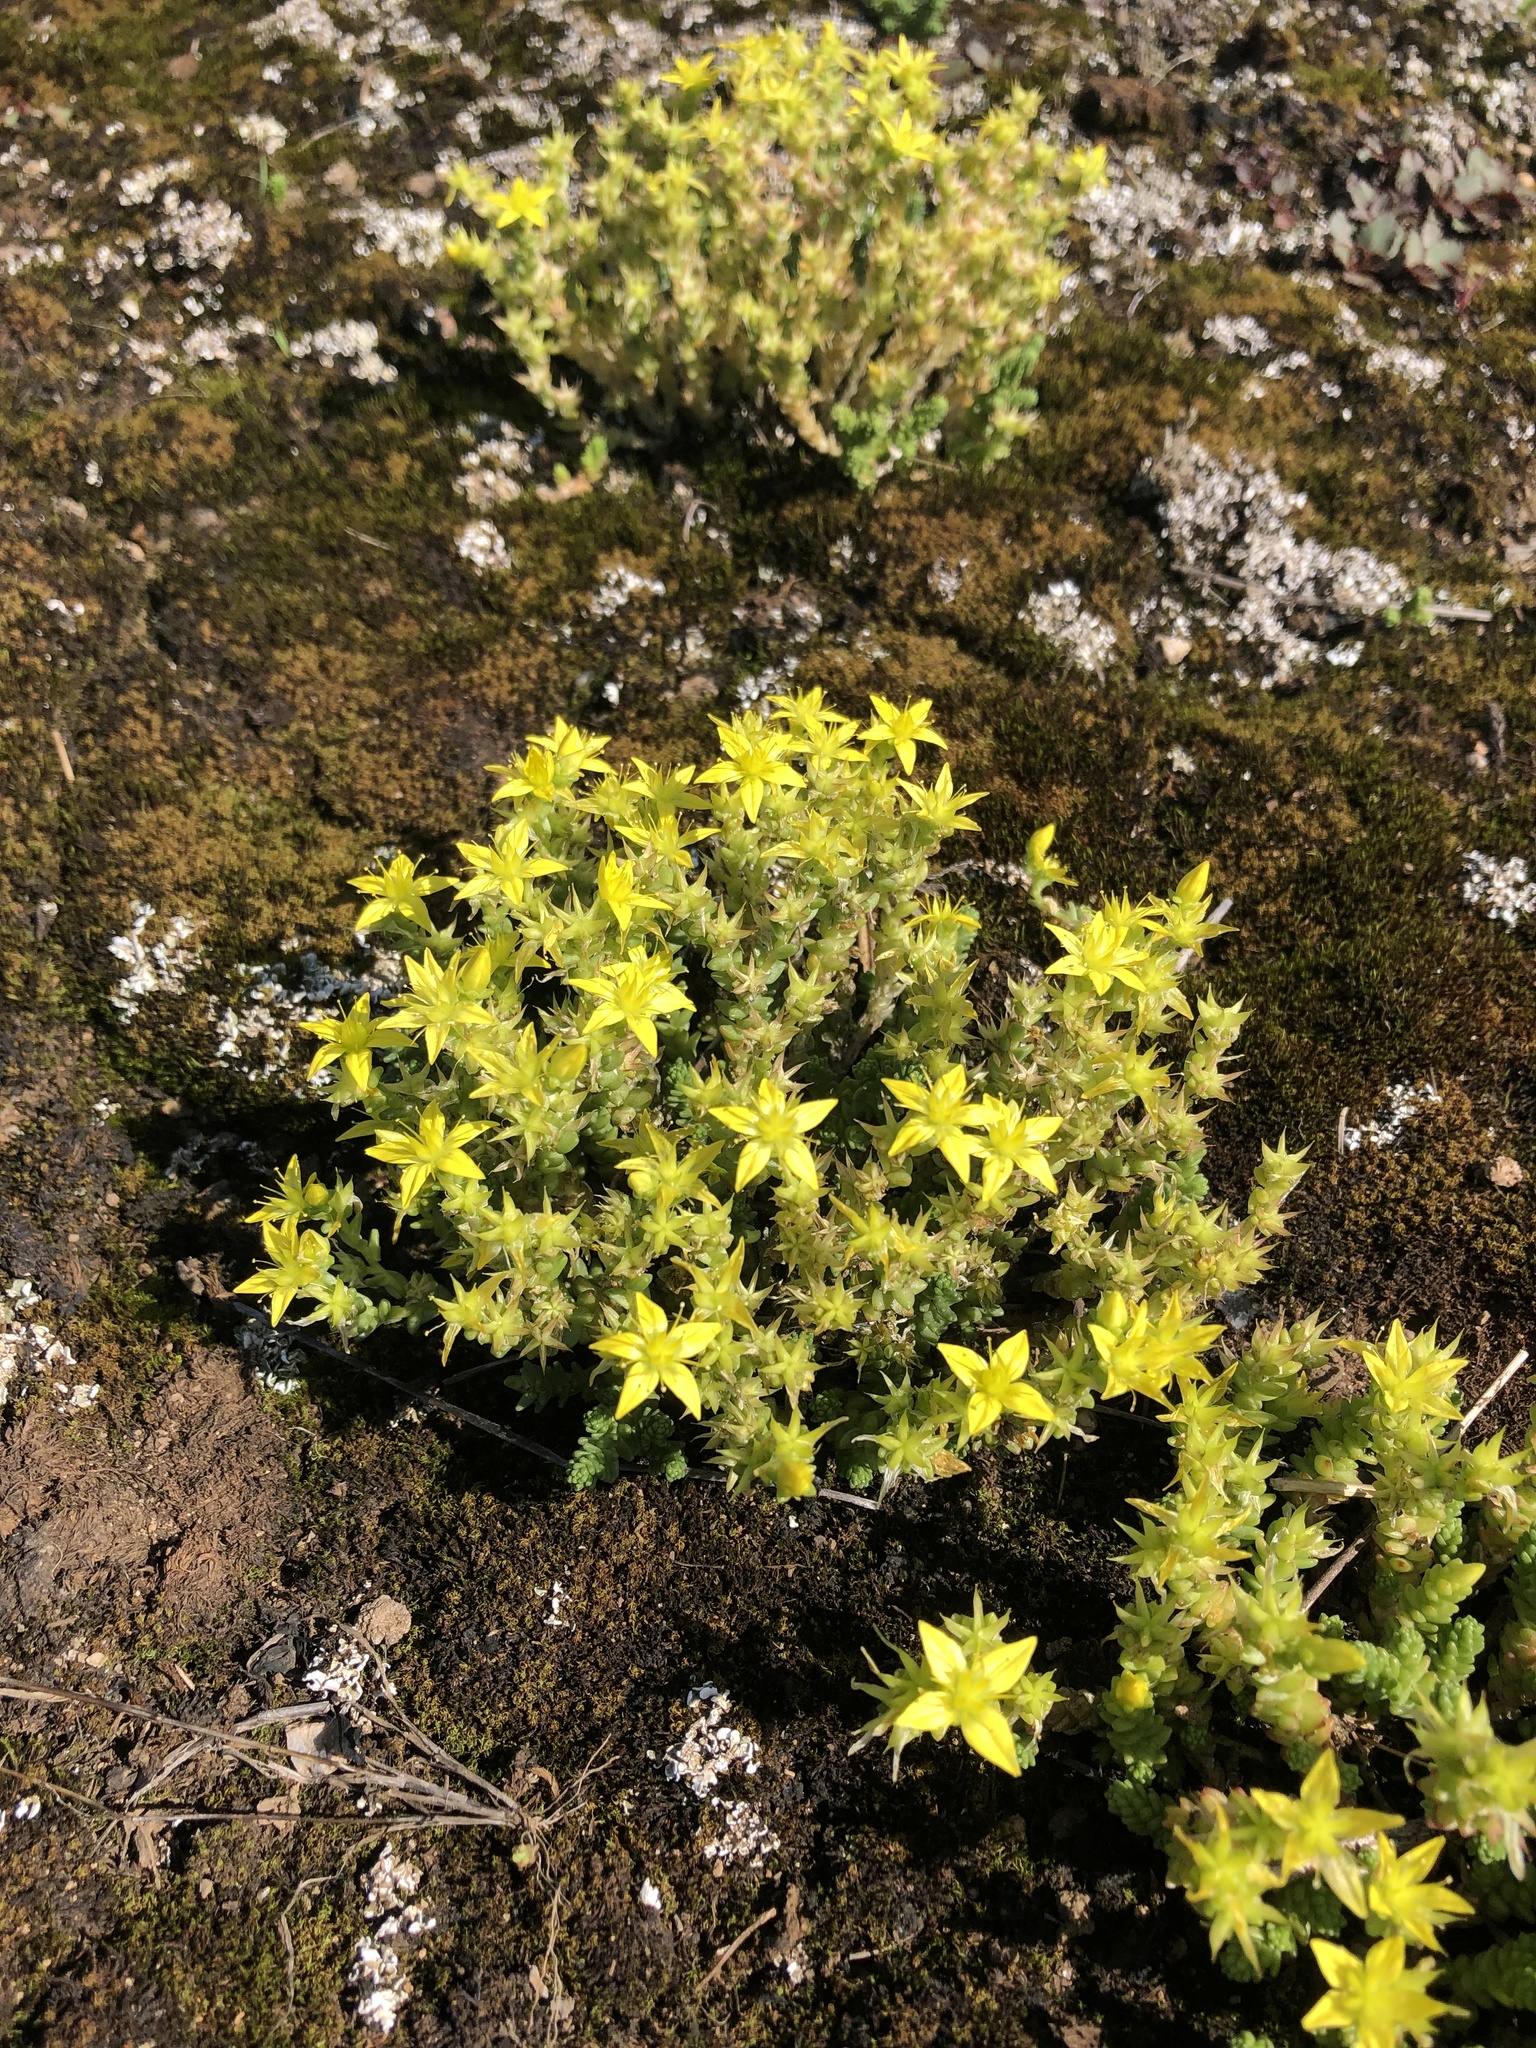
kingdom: Plantae
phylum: Tracheophyta
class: Magnoliopsida
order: Saxifragales
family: Crassulaceae
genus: Sedum
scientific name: Sedum acre
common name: Biting stonecrop
